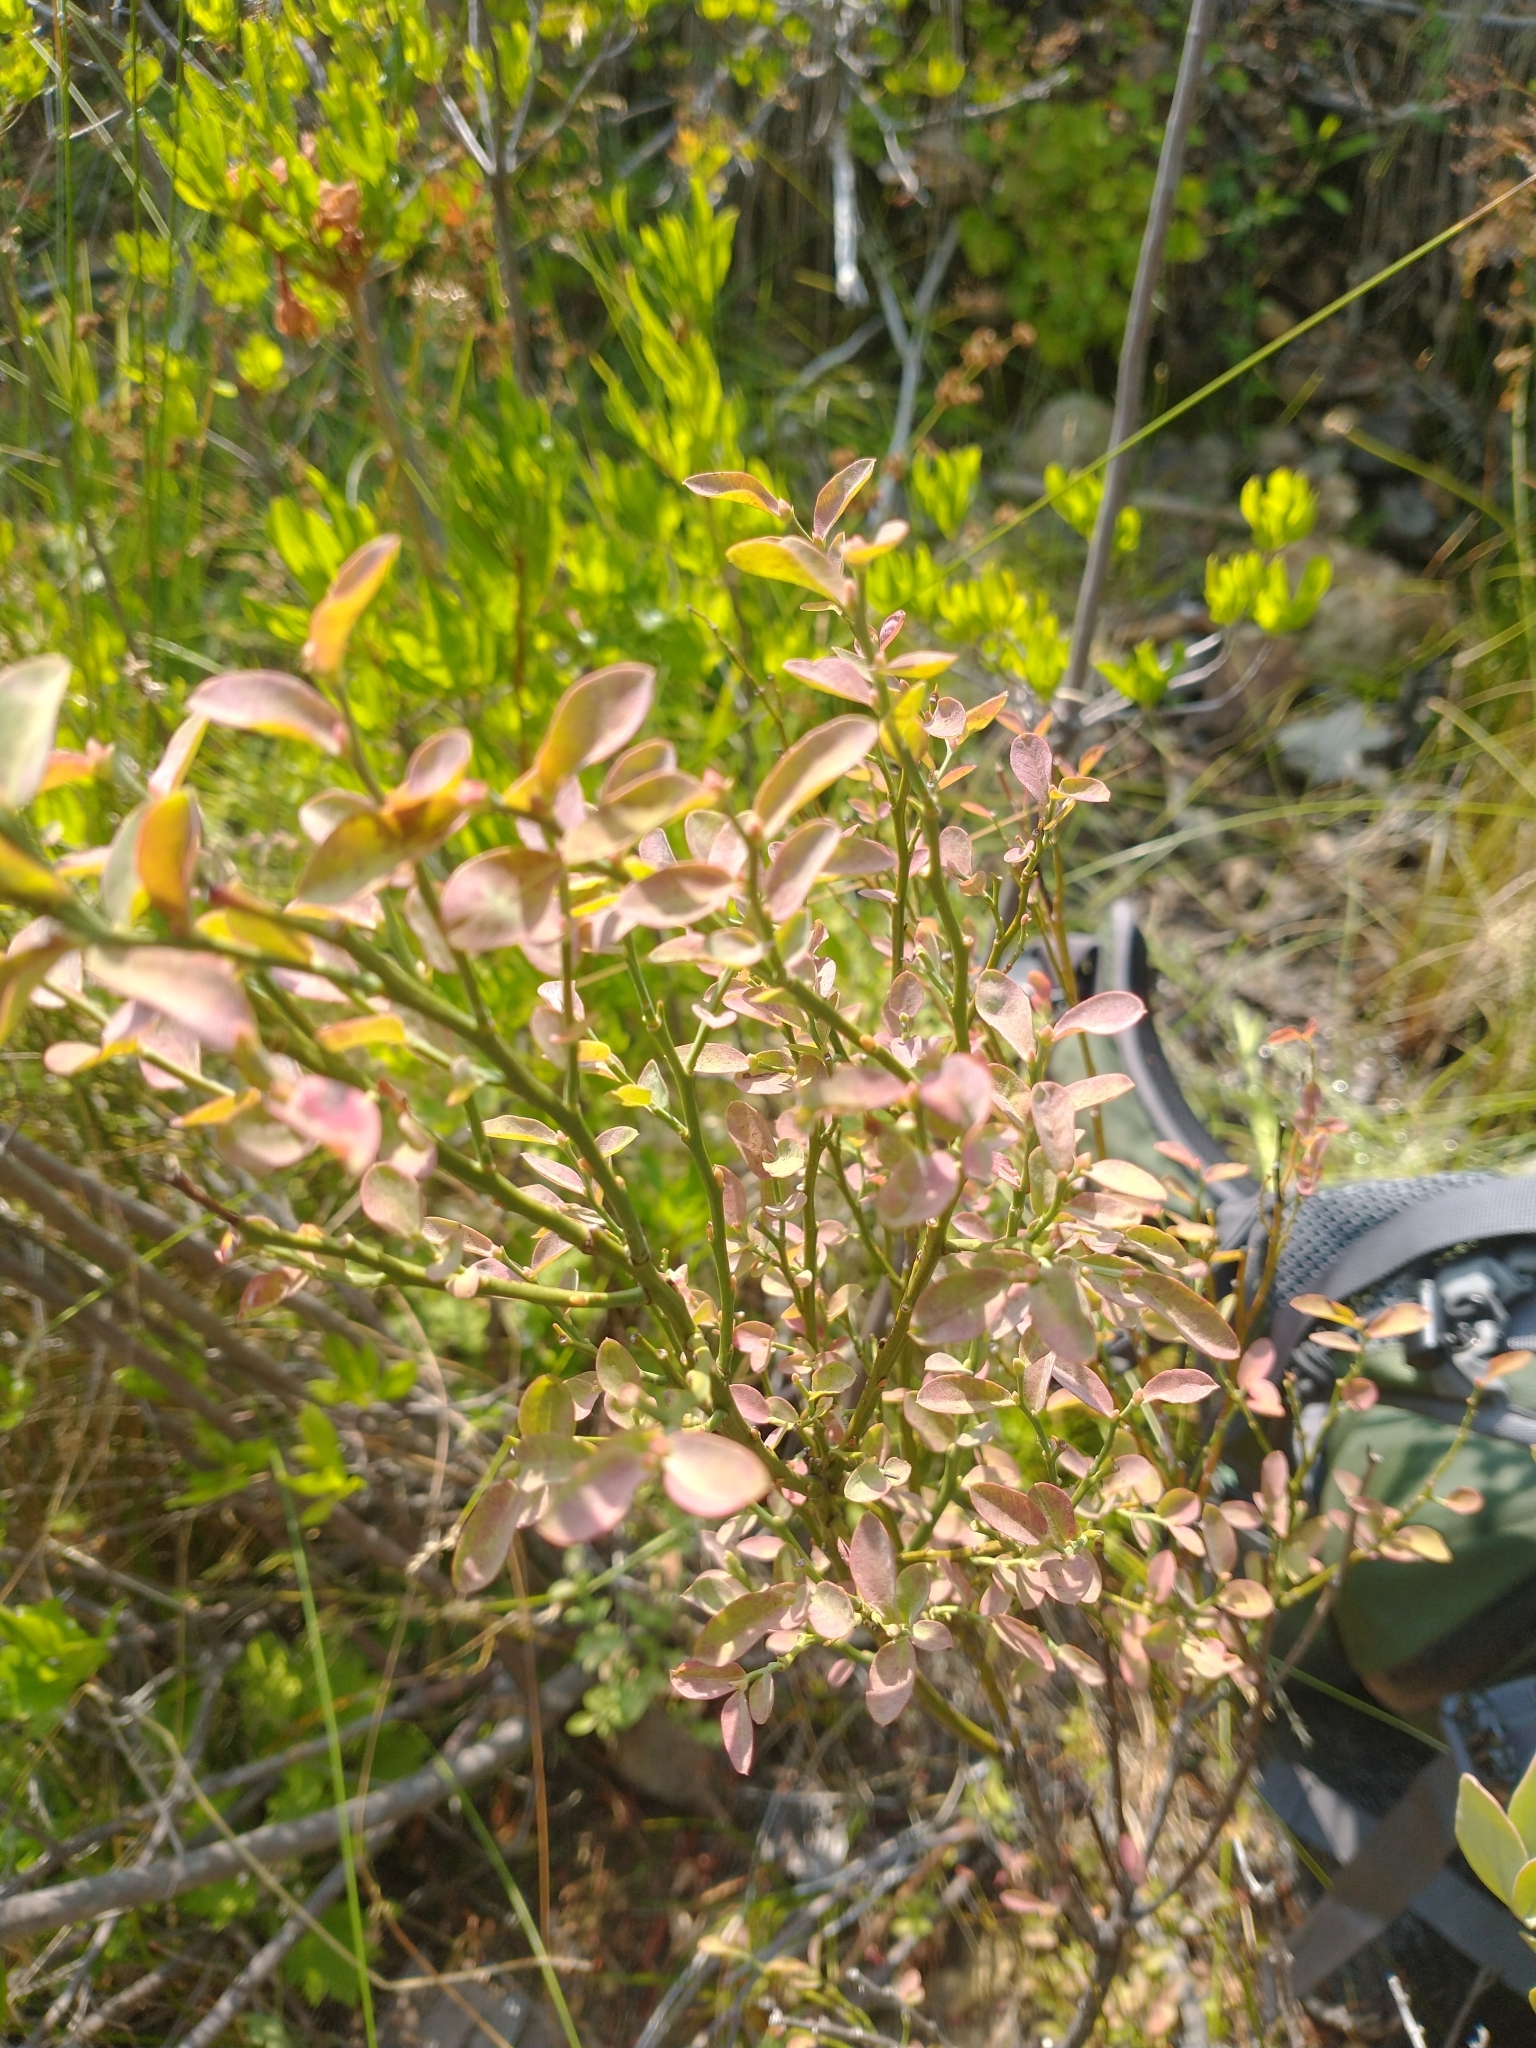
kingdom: Plantae
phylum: Tracheophyta
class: Magnoliopsida
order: Ericales
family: Ericaceae
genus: Vaccinium
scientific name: Vaccinium parvifolium
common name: Red-huckleberry
